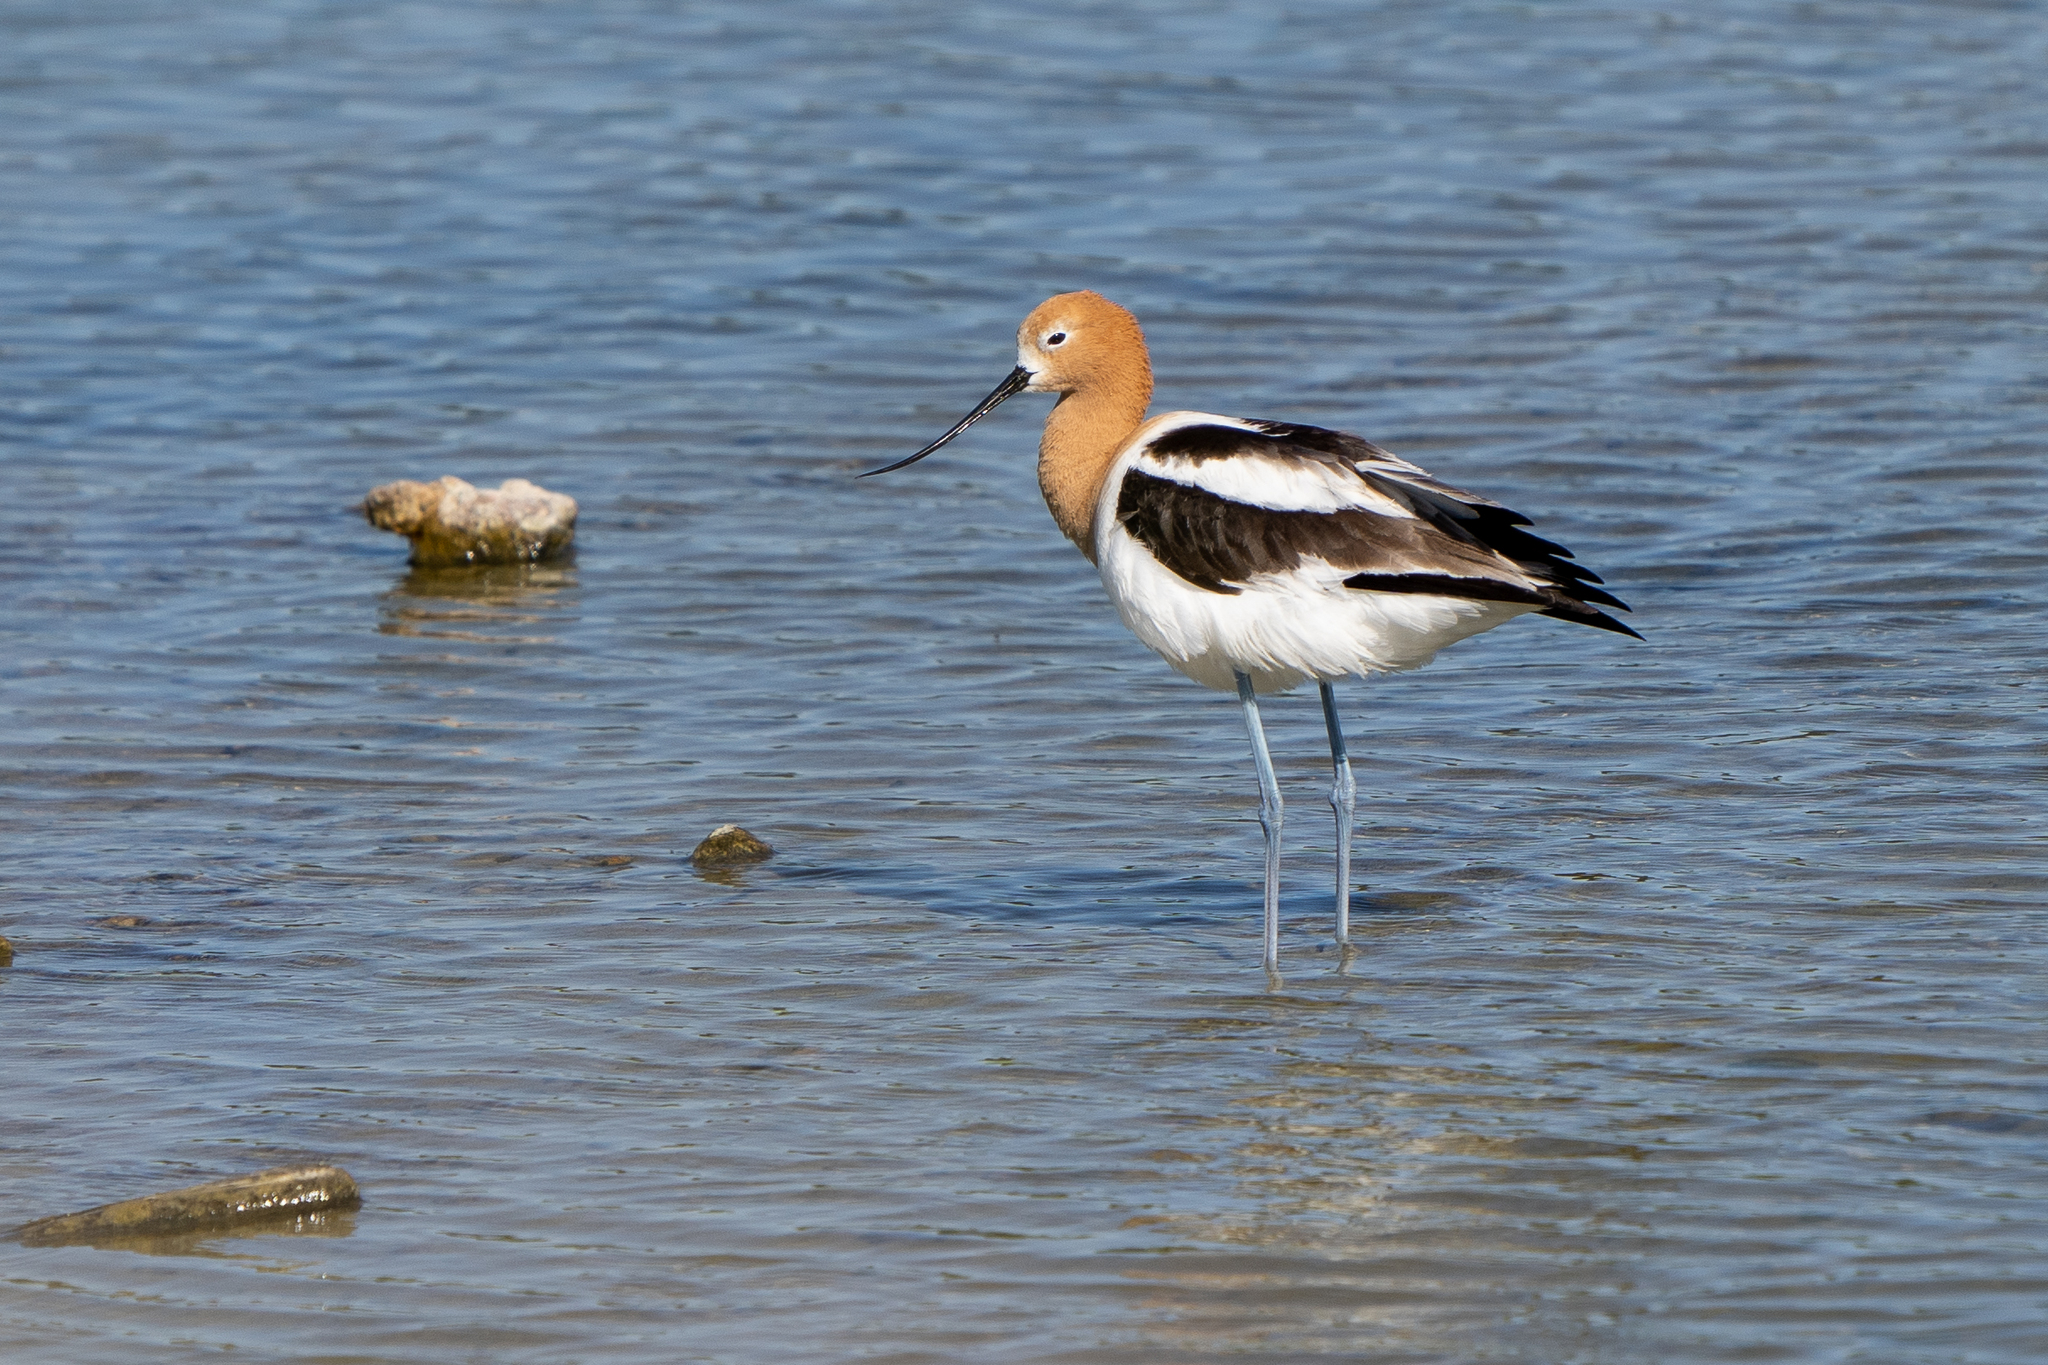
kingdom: Animalia
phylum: Chordata
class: Aves
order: Charadriiformes
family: Recurvirostridae
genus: Recurvirostra
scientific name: Recurvirostra americana
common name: American avocet
